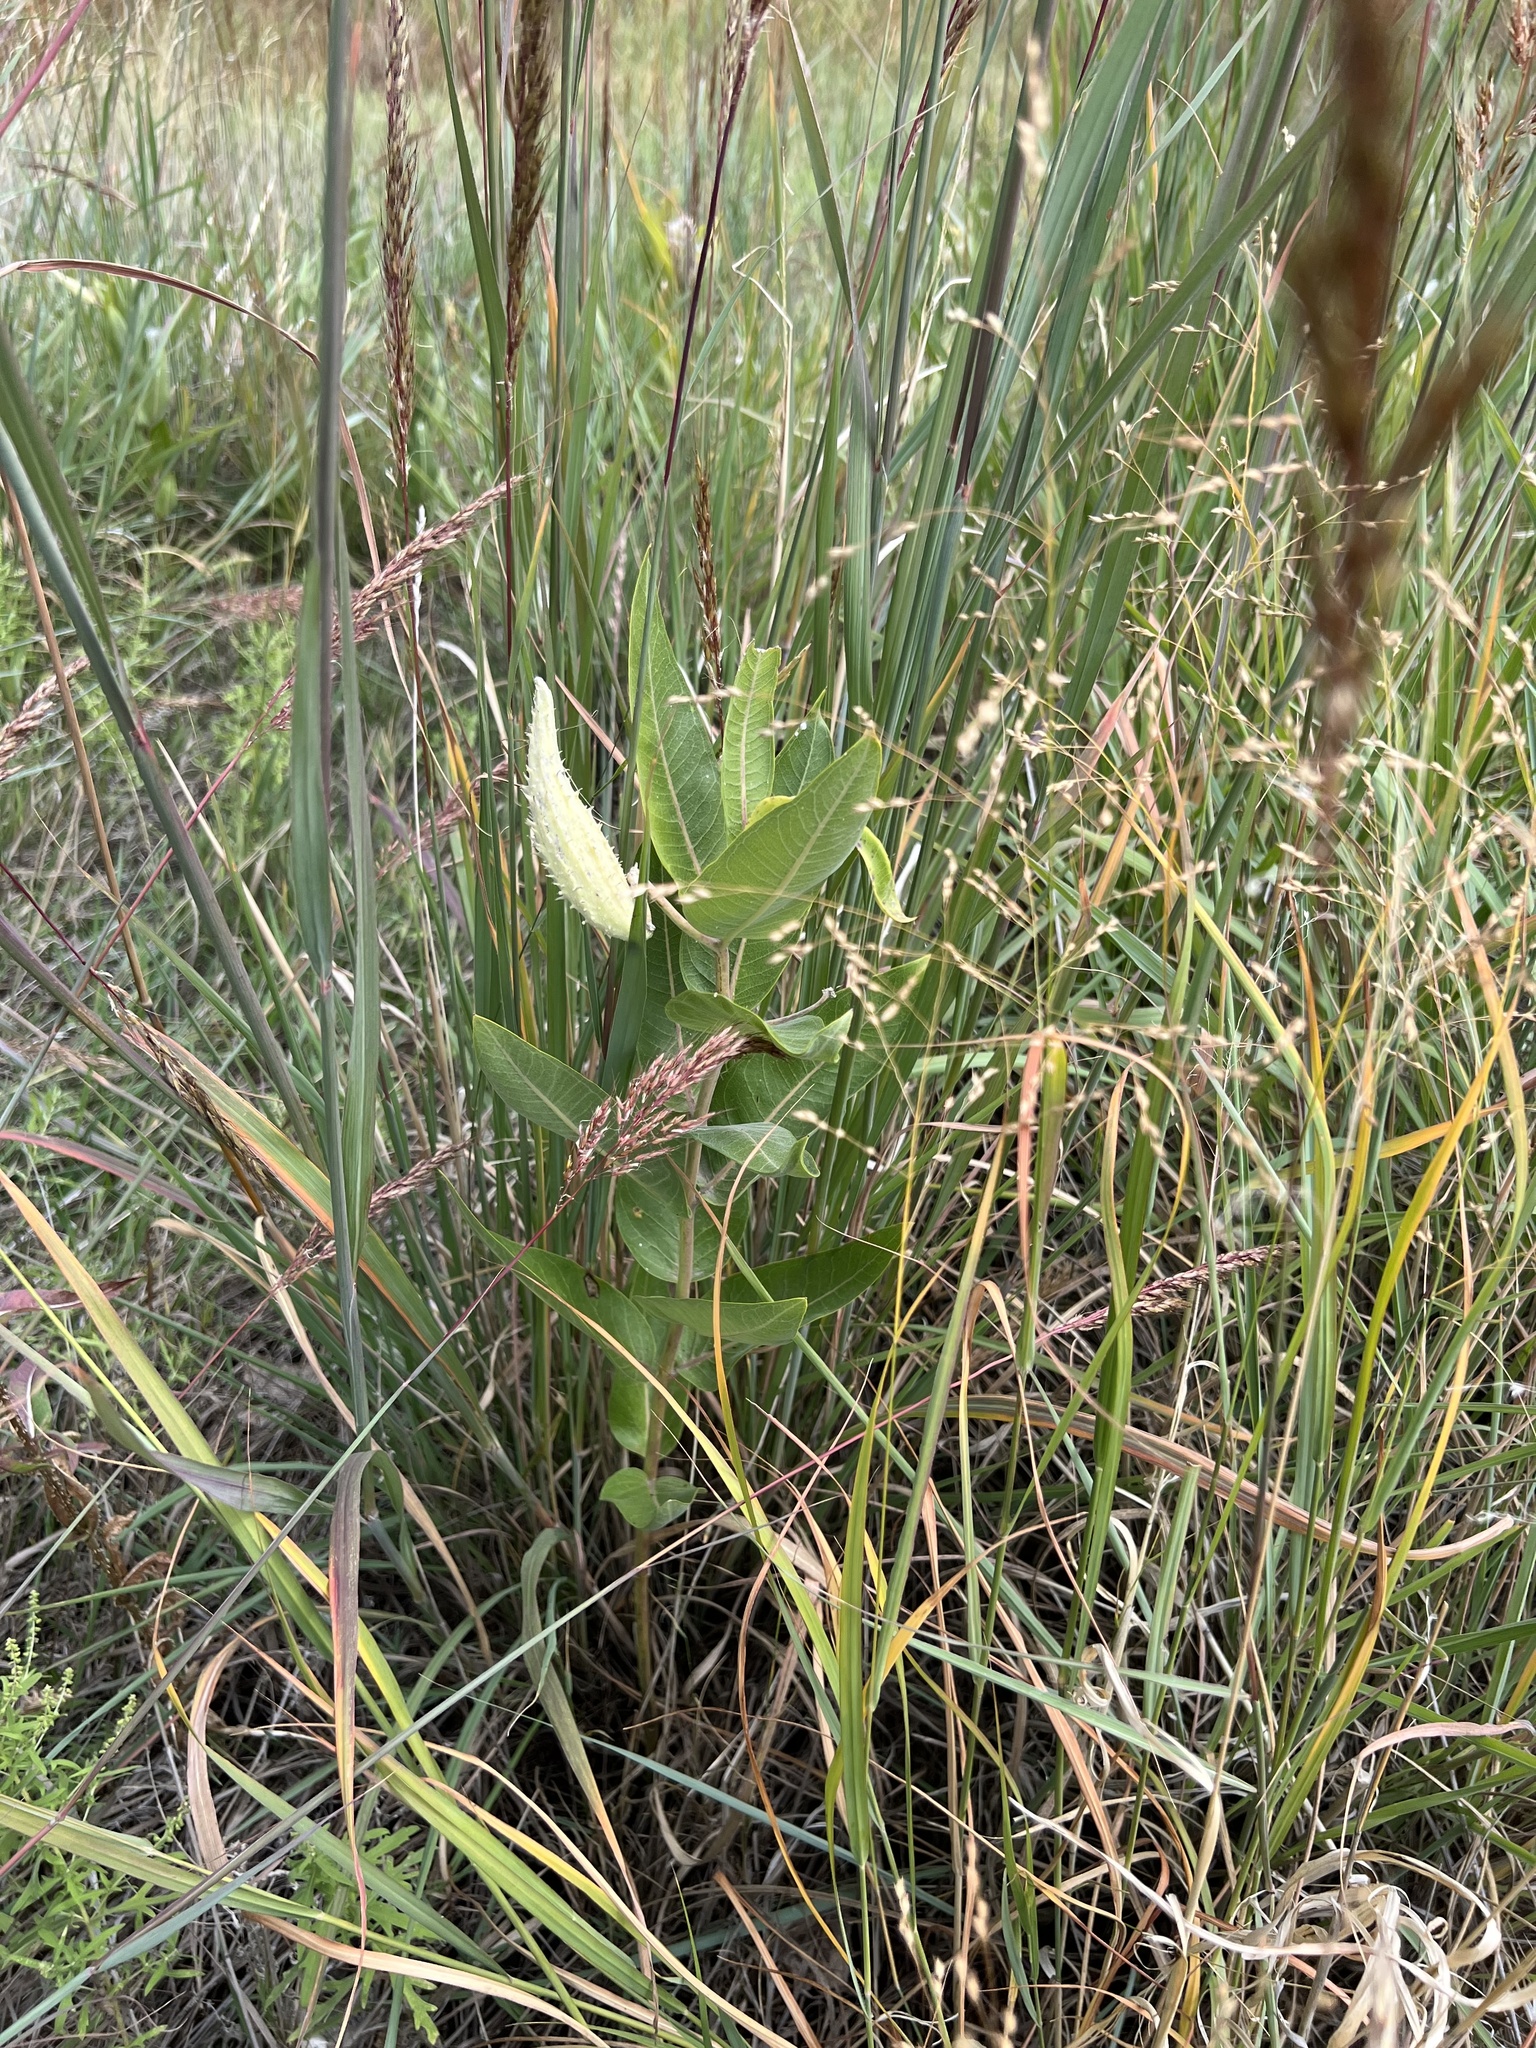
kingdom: Plantae
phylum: Tracheophyta
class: Magnoliopsida
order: Gentianales
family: Apocynaceae
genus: Asclepias
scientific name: Asclepias speciosa
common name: Showy milkweed
